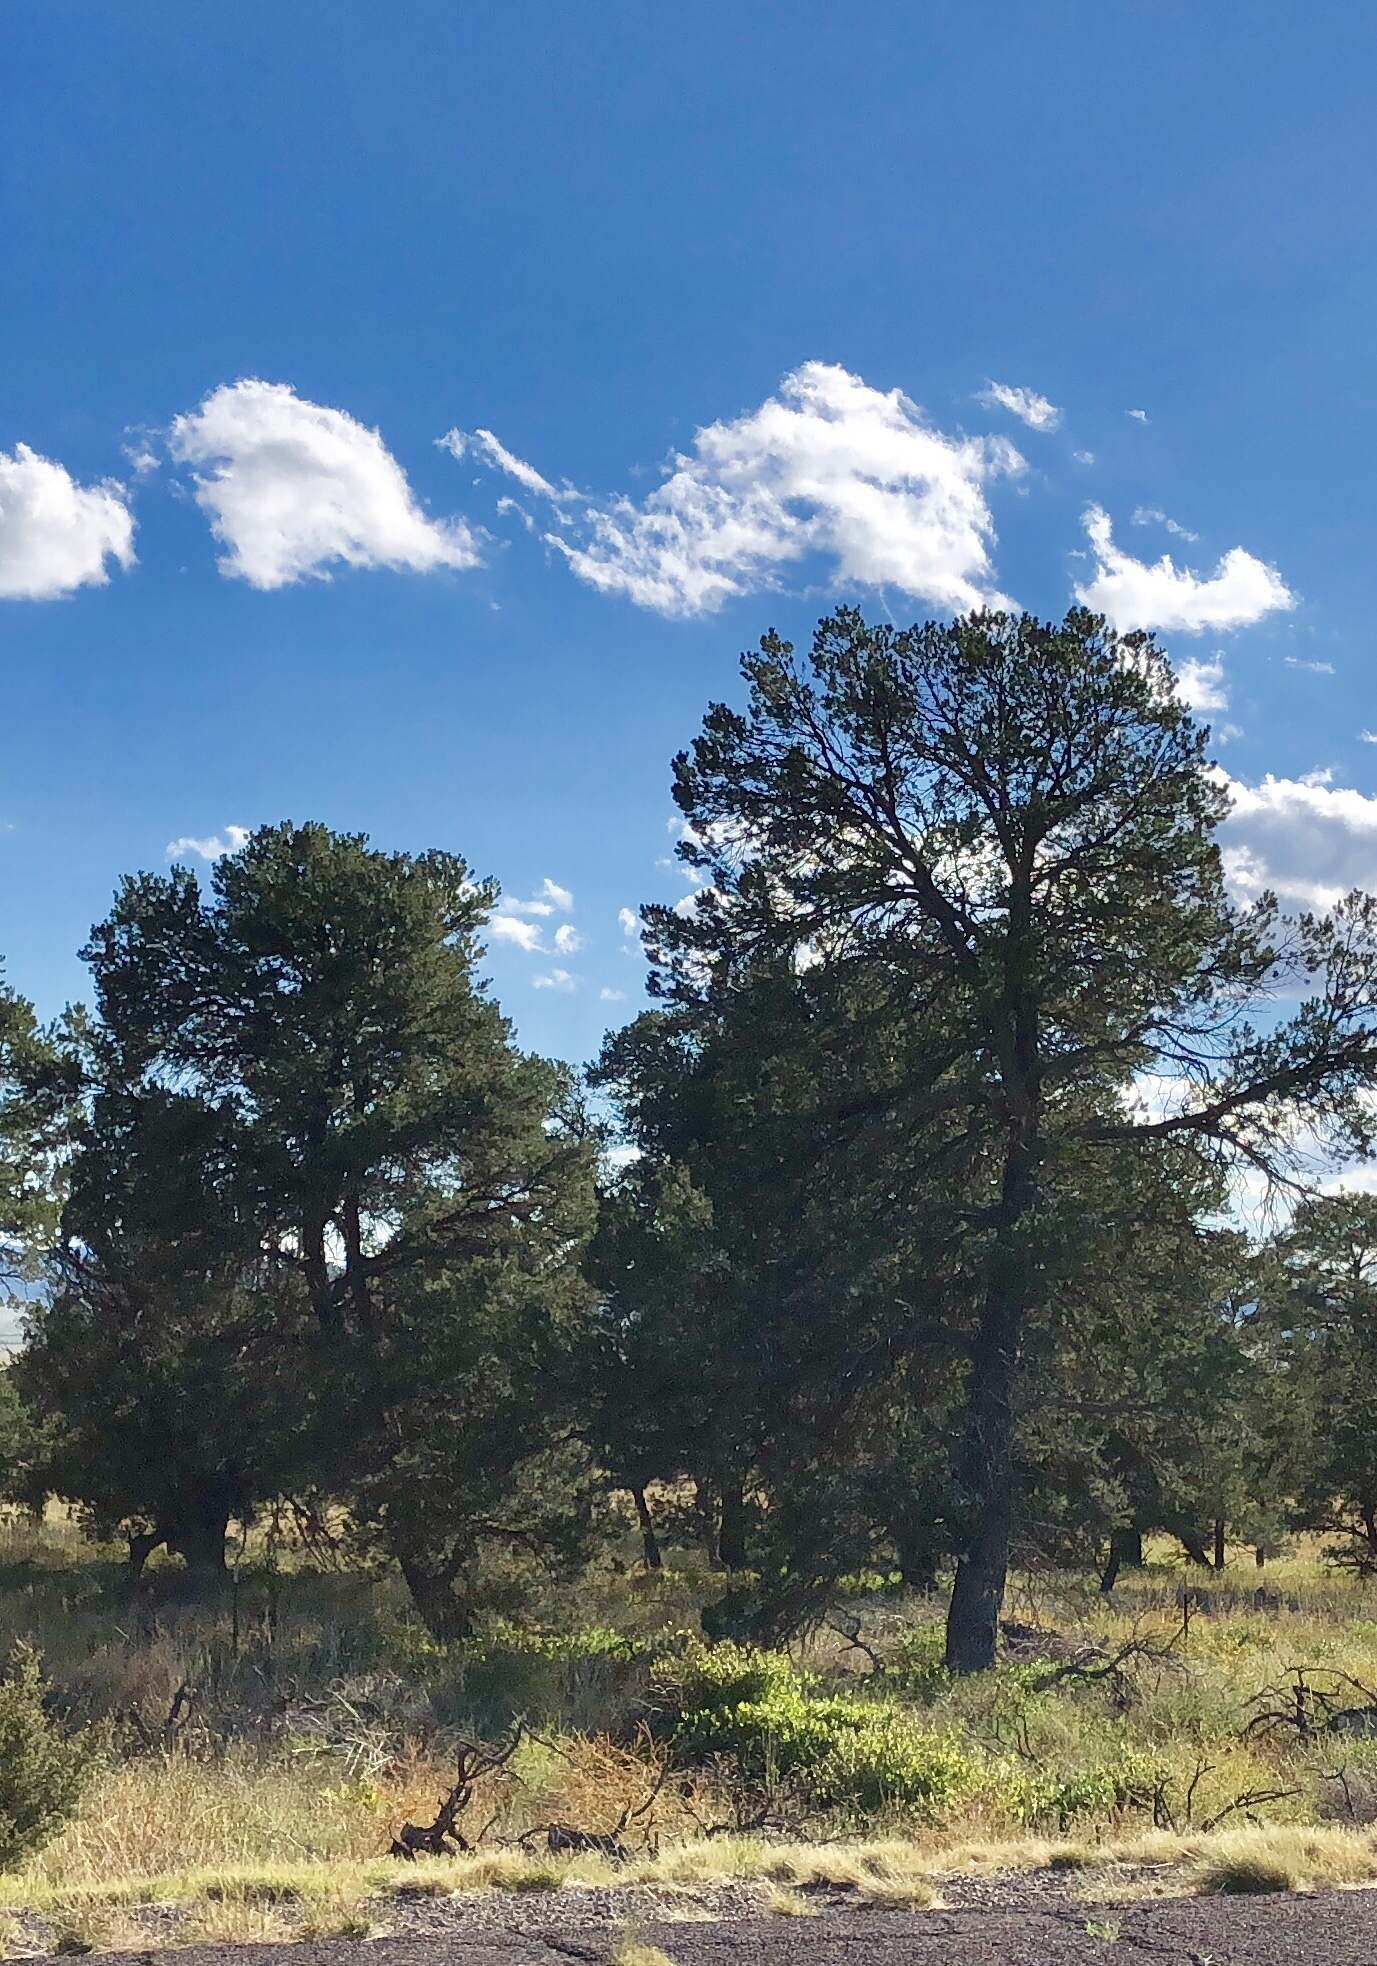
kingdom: Plantae
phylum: Tracheophyta
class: Pinopsida
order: Pinales
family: Pinaceae
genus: Pinus
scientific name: Pinus edulis
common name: Colorado pinyon
